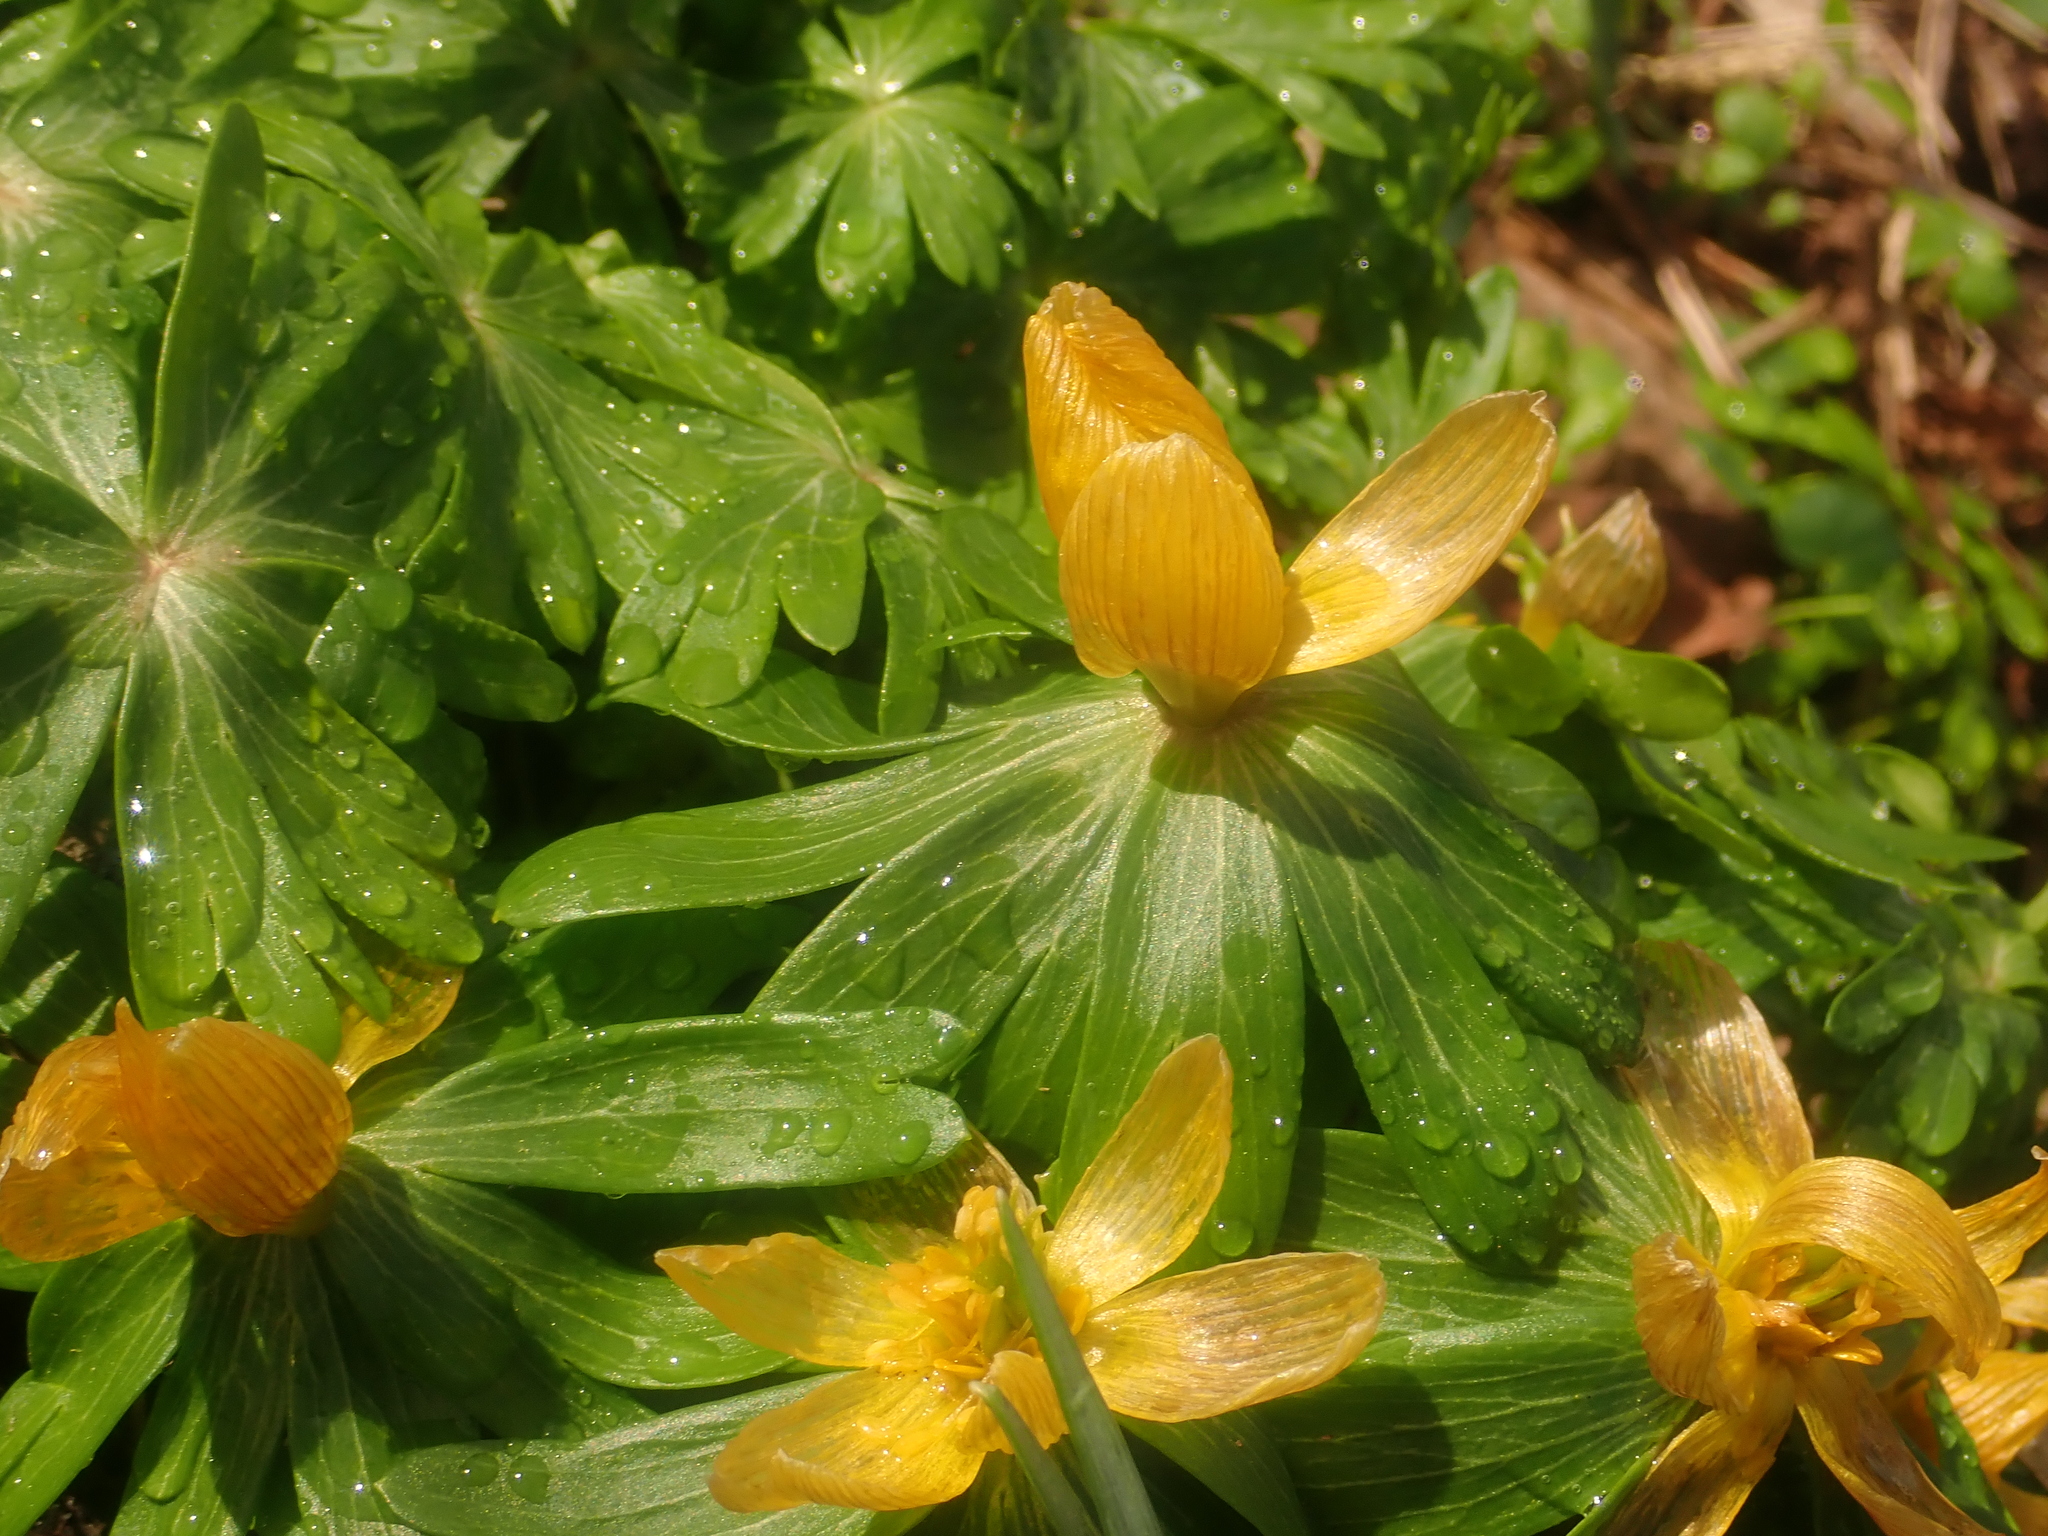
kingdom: Plantae
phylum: Tracheophyta
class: Magnoliopsida
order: Ranunculales
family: Ranunculaceae
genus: Eranthis
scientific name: Eranthis hyemalis
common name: Winter aconite
